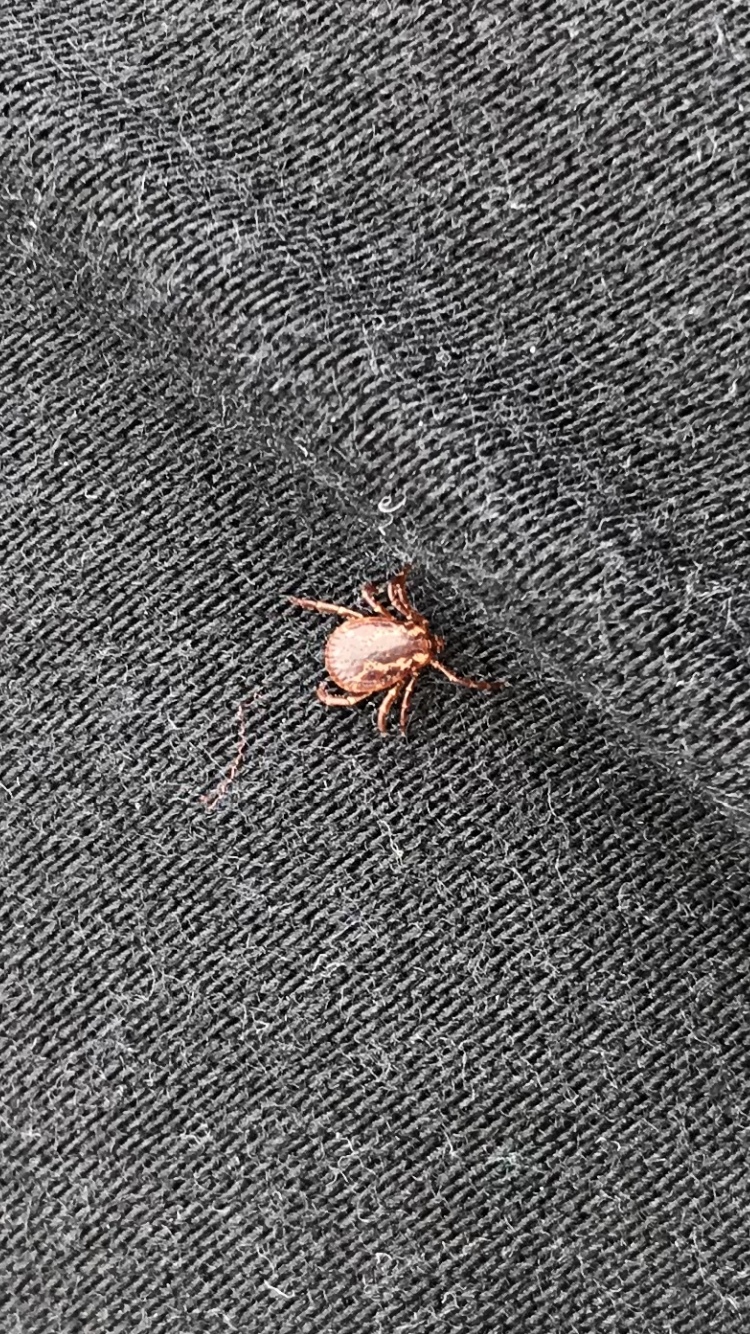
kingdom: Animalia
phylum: Arthropoda
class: Arachnida
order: Ixodida
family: Ixodidae
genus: Dermacentor
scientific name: Dermacentor variabilis
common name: American dog tick
